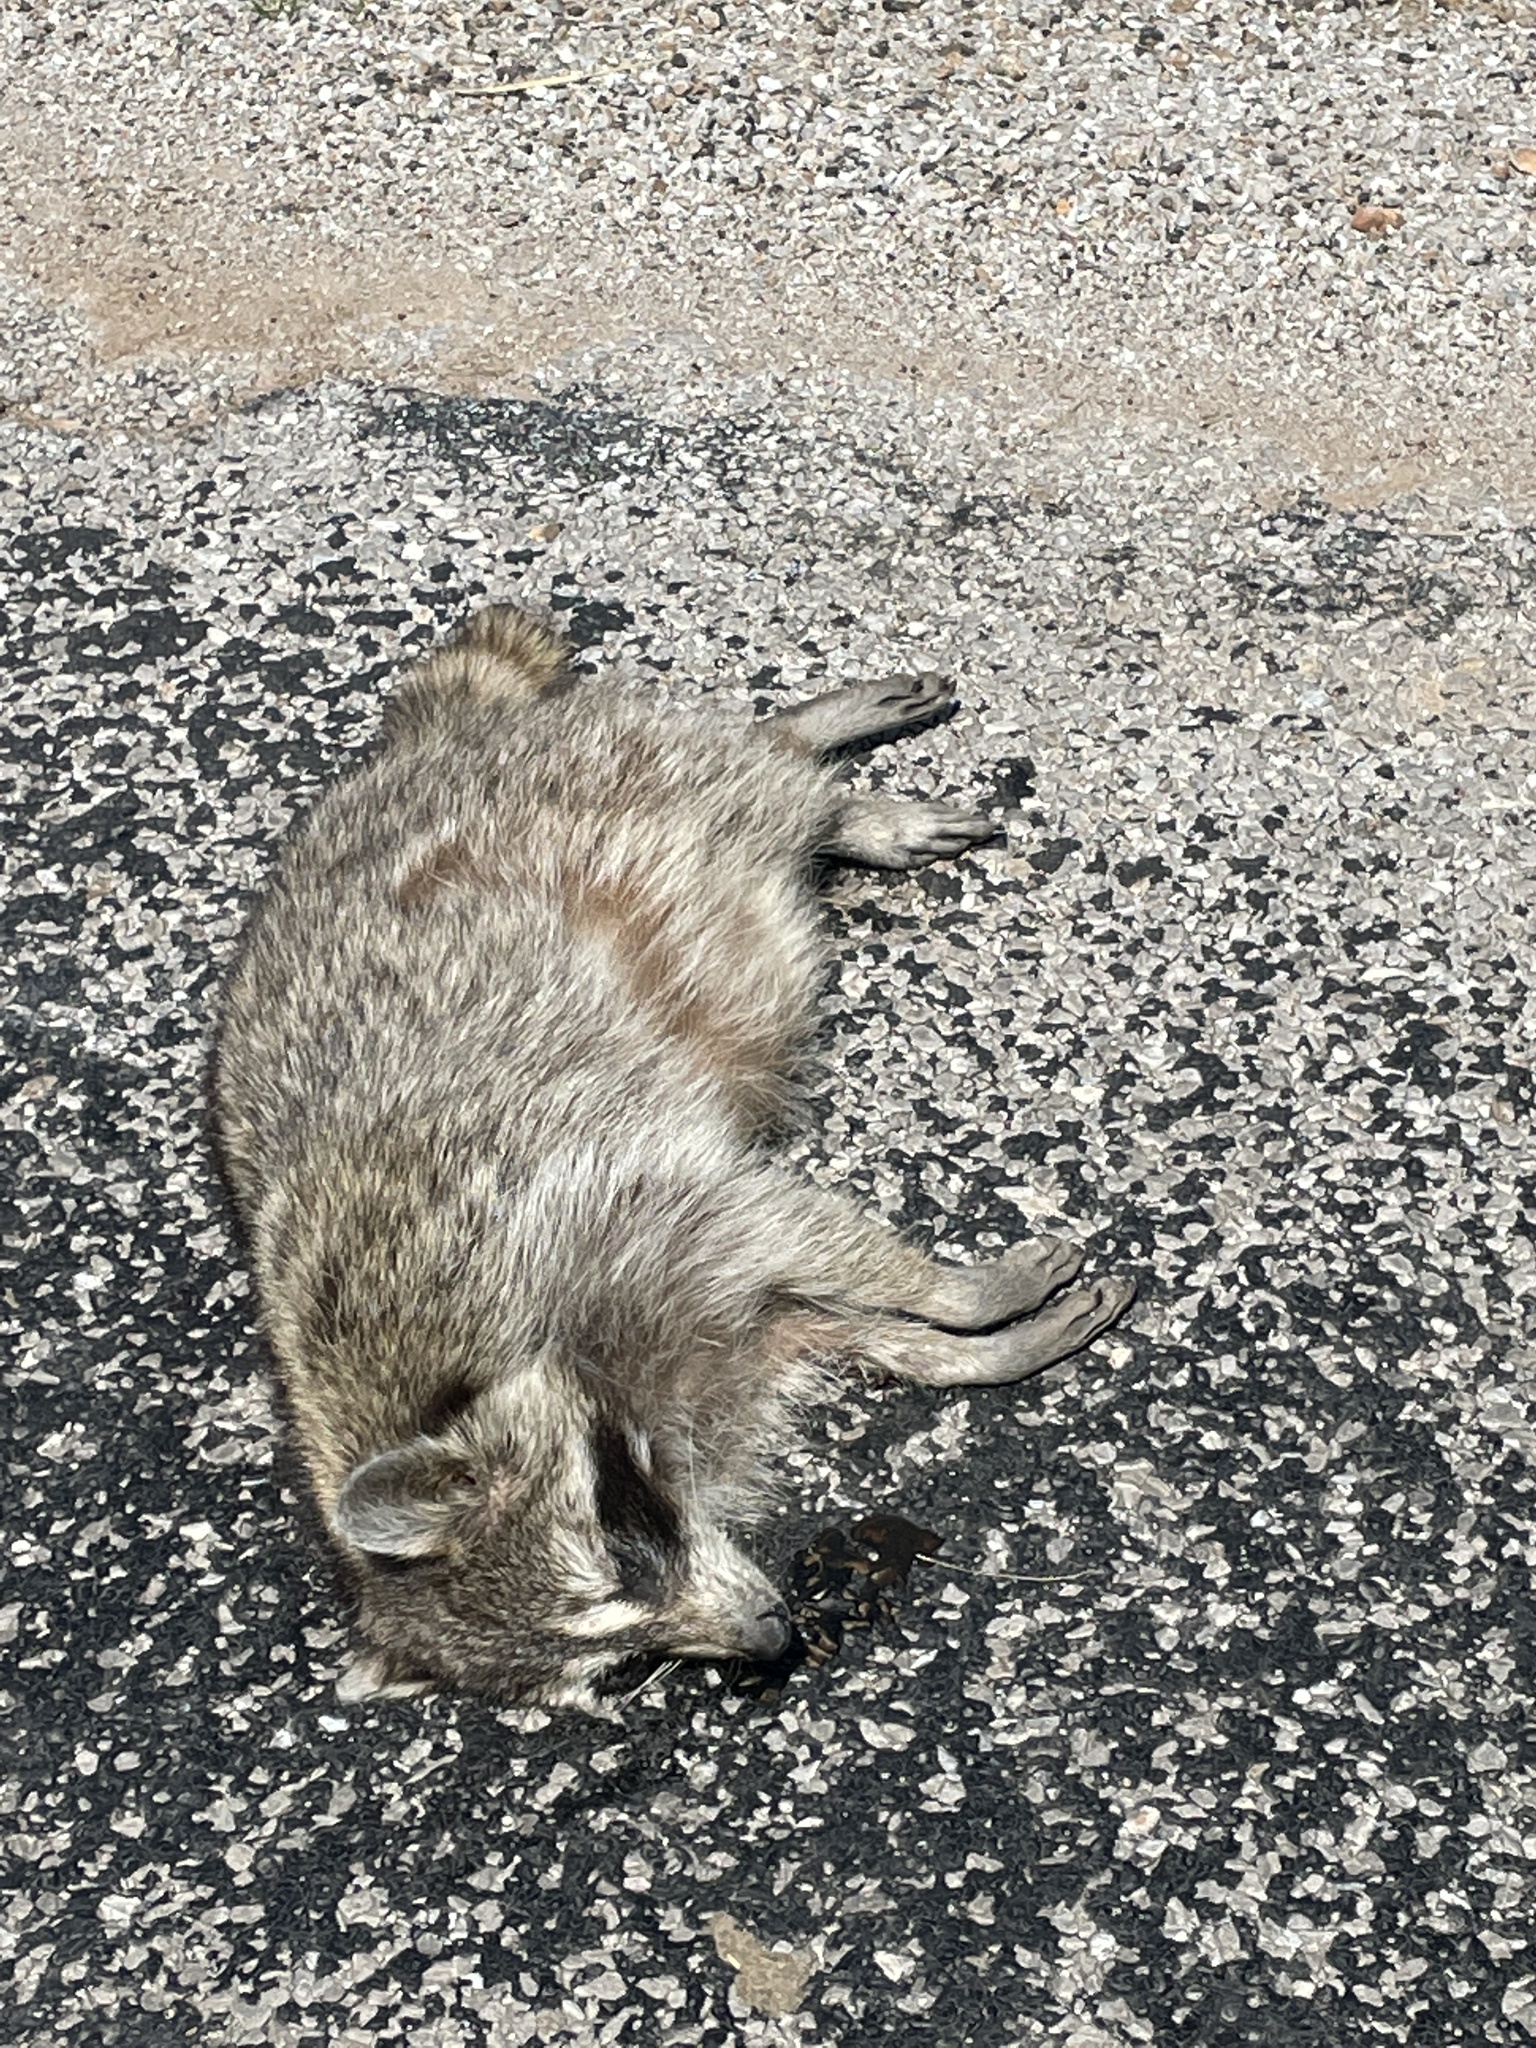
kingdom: Animalia
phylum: Chordata
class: Mammalia
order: Carnivora
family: Procyonidae
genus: Procyon
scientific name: Procyon lotor
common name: Raccoon
